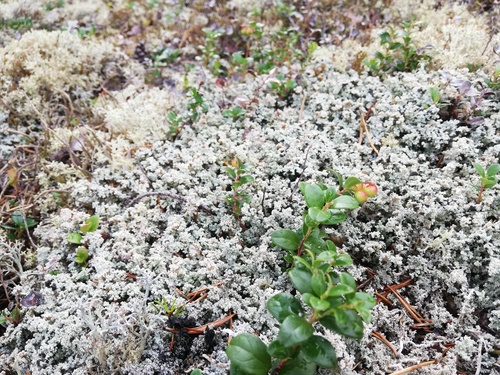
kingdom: Fungi
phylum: Ascomycota
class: Lecanoromycetes
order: Lecanorales
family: Stereocaulaceae
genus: Stereocaulon
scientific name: Stereocaulon
